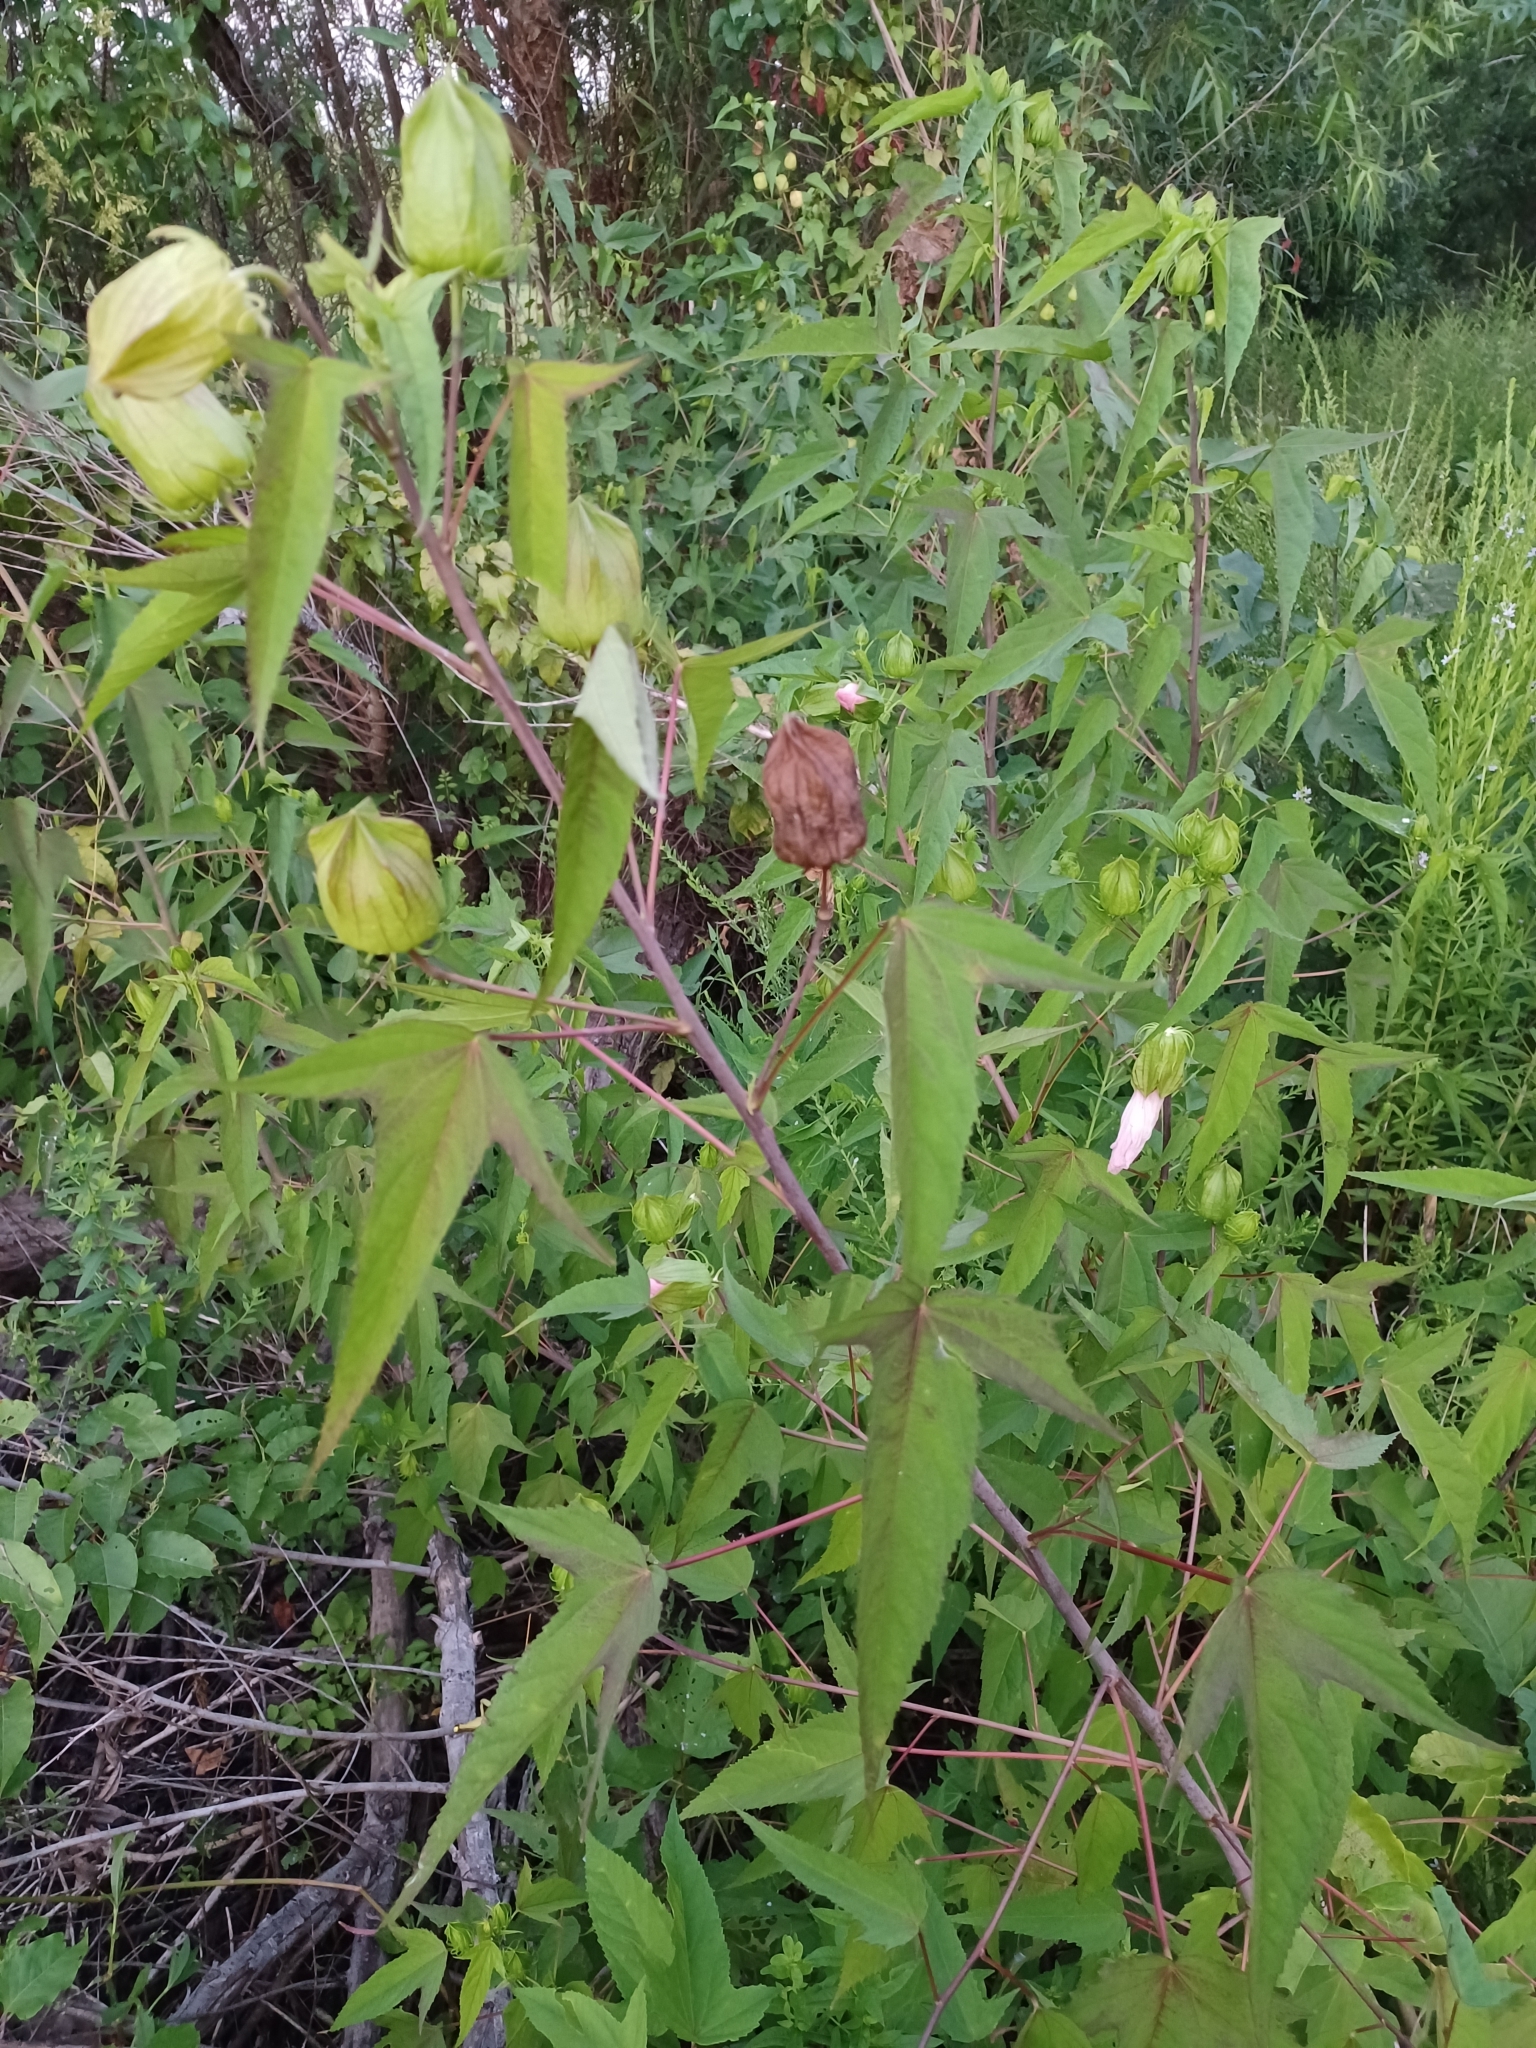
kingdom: Plantae
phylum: Tracheophyta
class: Magnoliopsida
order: Malvales
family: Malvaceae
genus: Hibiscus
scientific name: Hibiscus laevis
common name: Scarlet rose-mallow
